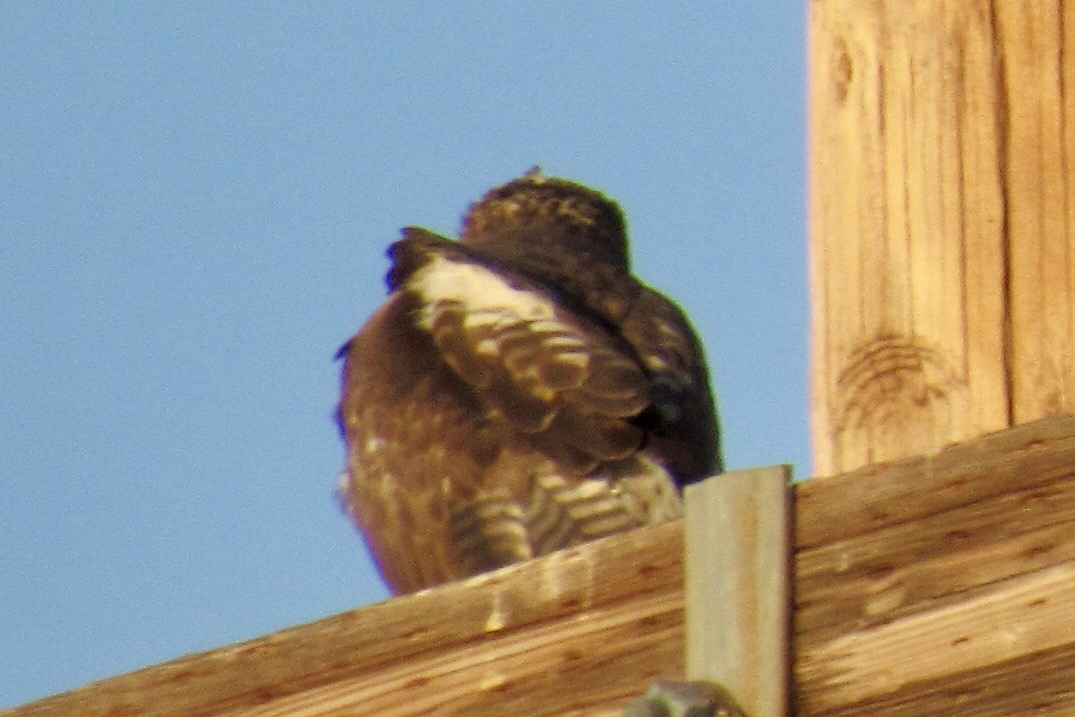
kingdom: Animalia
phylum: Chordata
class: Aves
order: Accipitriformes
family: Accipitridae
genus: Buteo
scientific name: Buteo jamaicensis
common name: Red-tailed hawk
